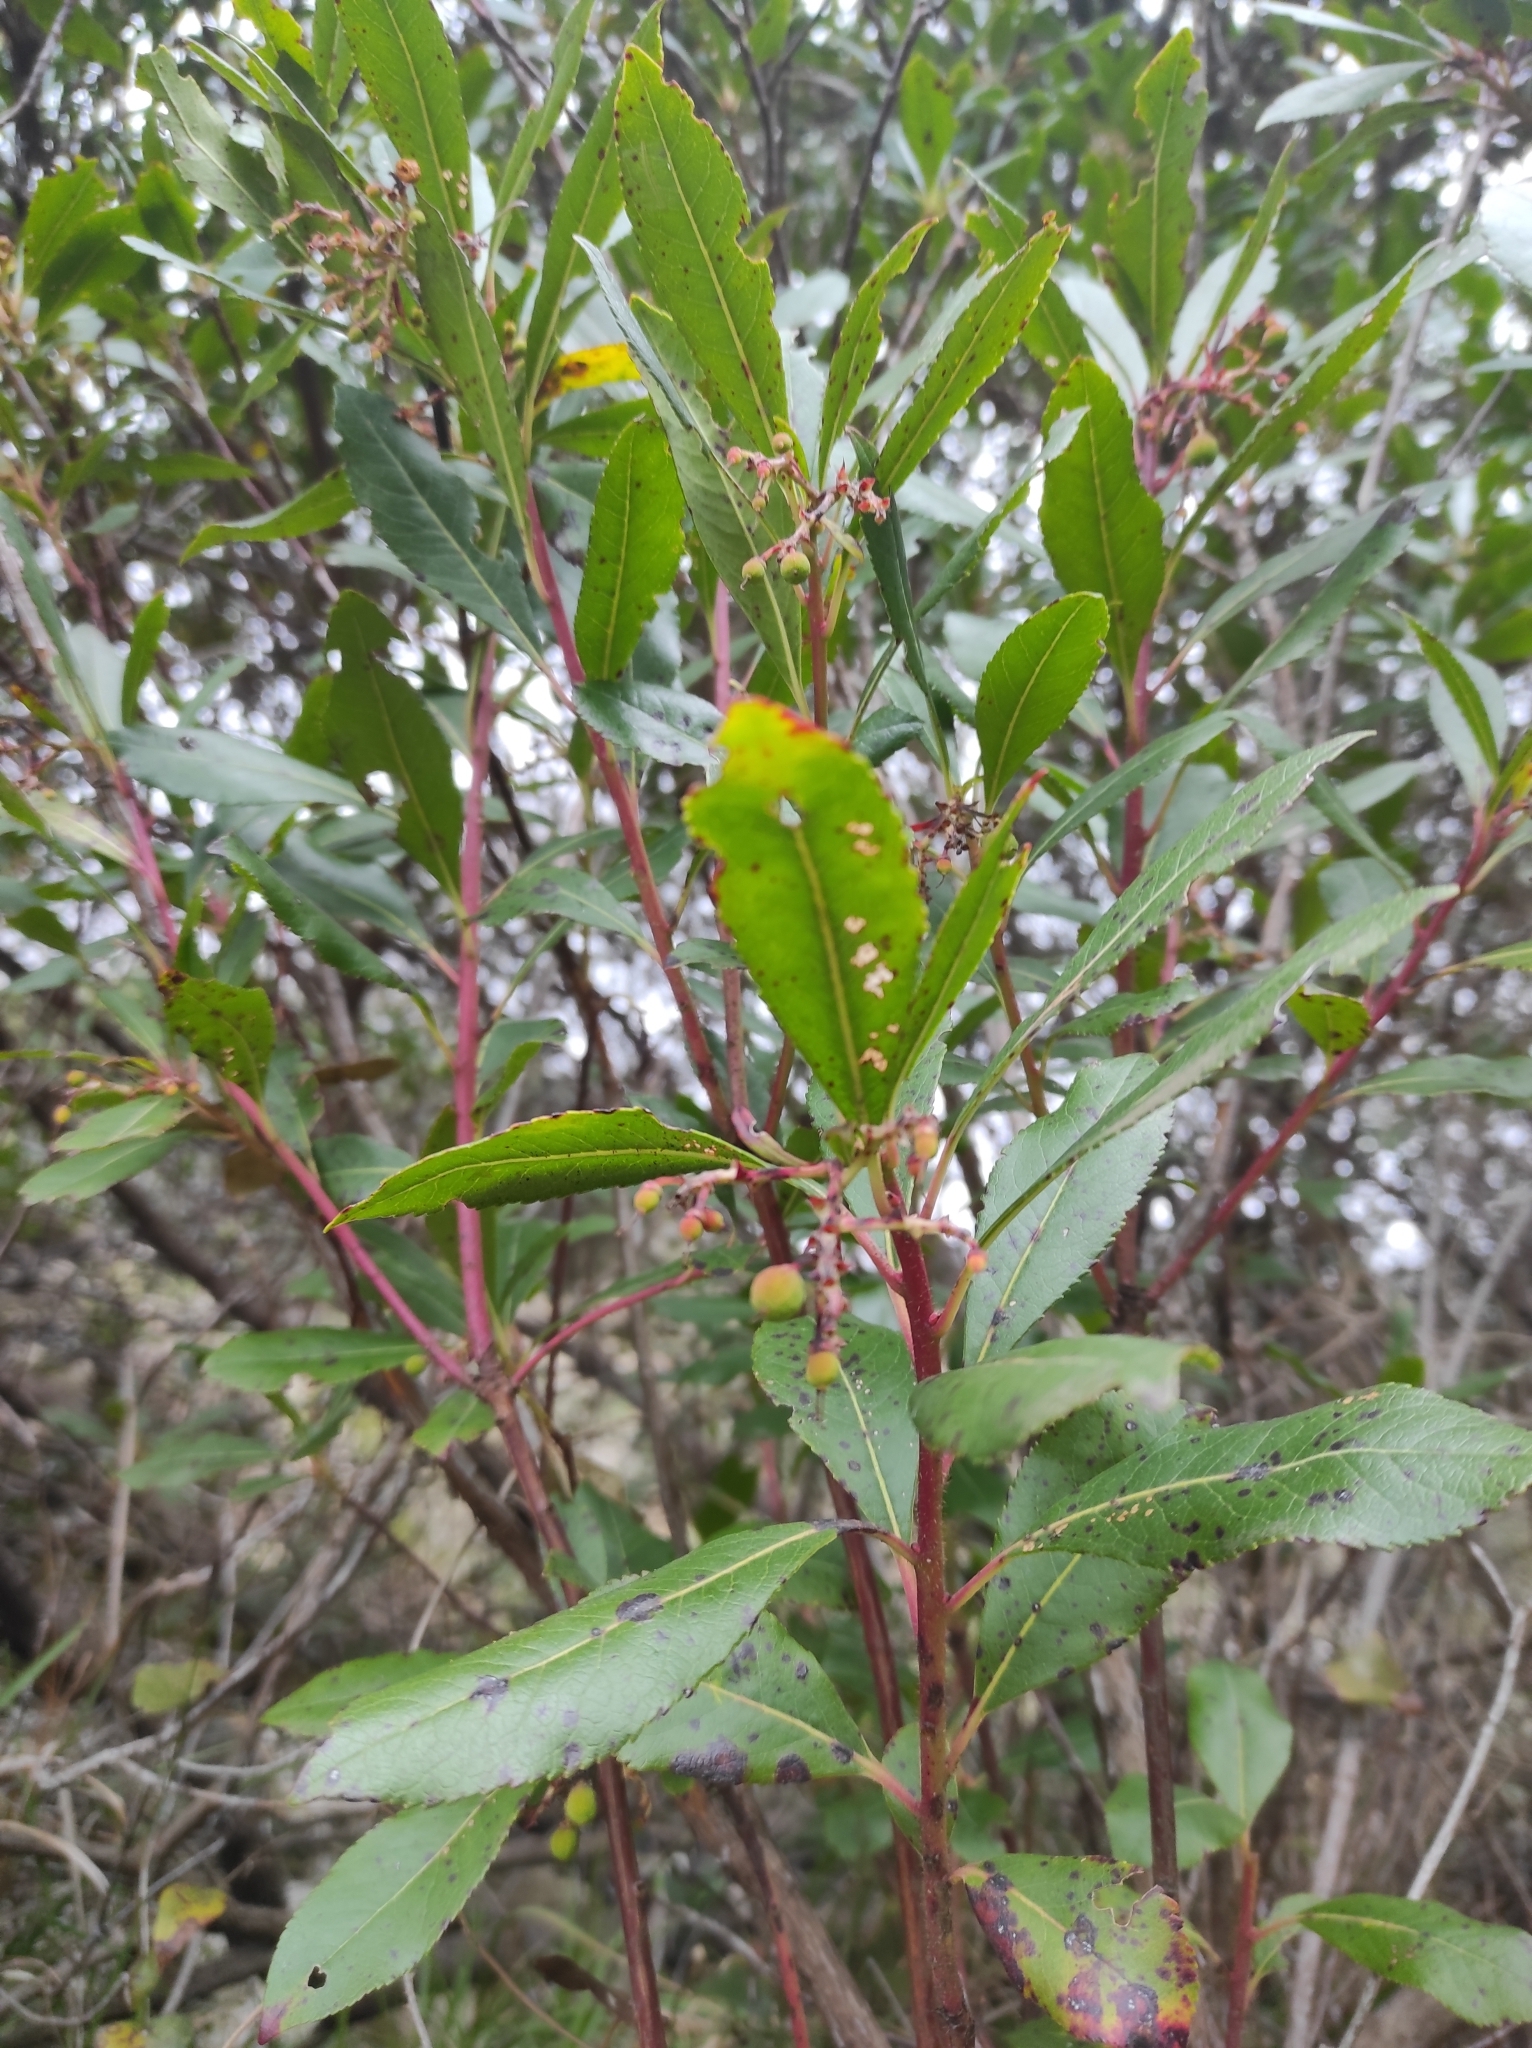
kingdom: Plantae
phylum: Tracheophyta
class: Magnoliopsida
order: Ericales
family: Ericaceae
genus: Arbutus
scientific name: Arbutus unedo
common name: Strawberry-tree
